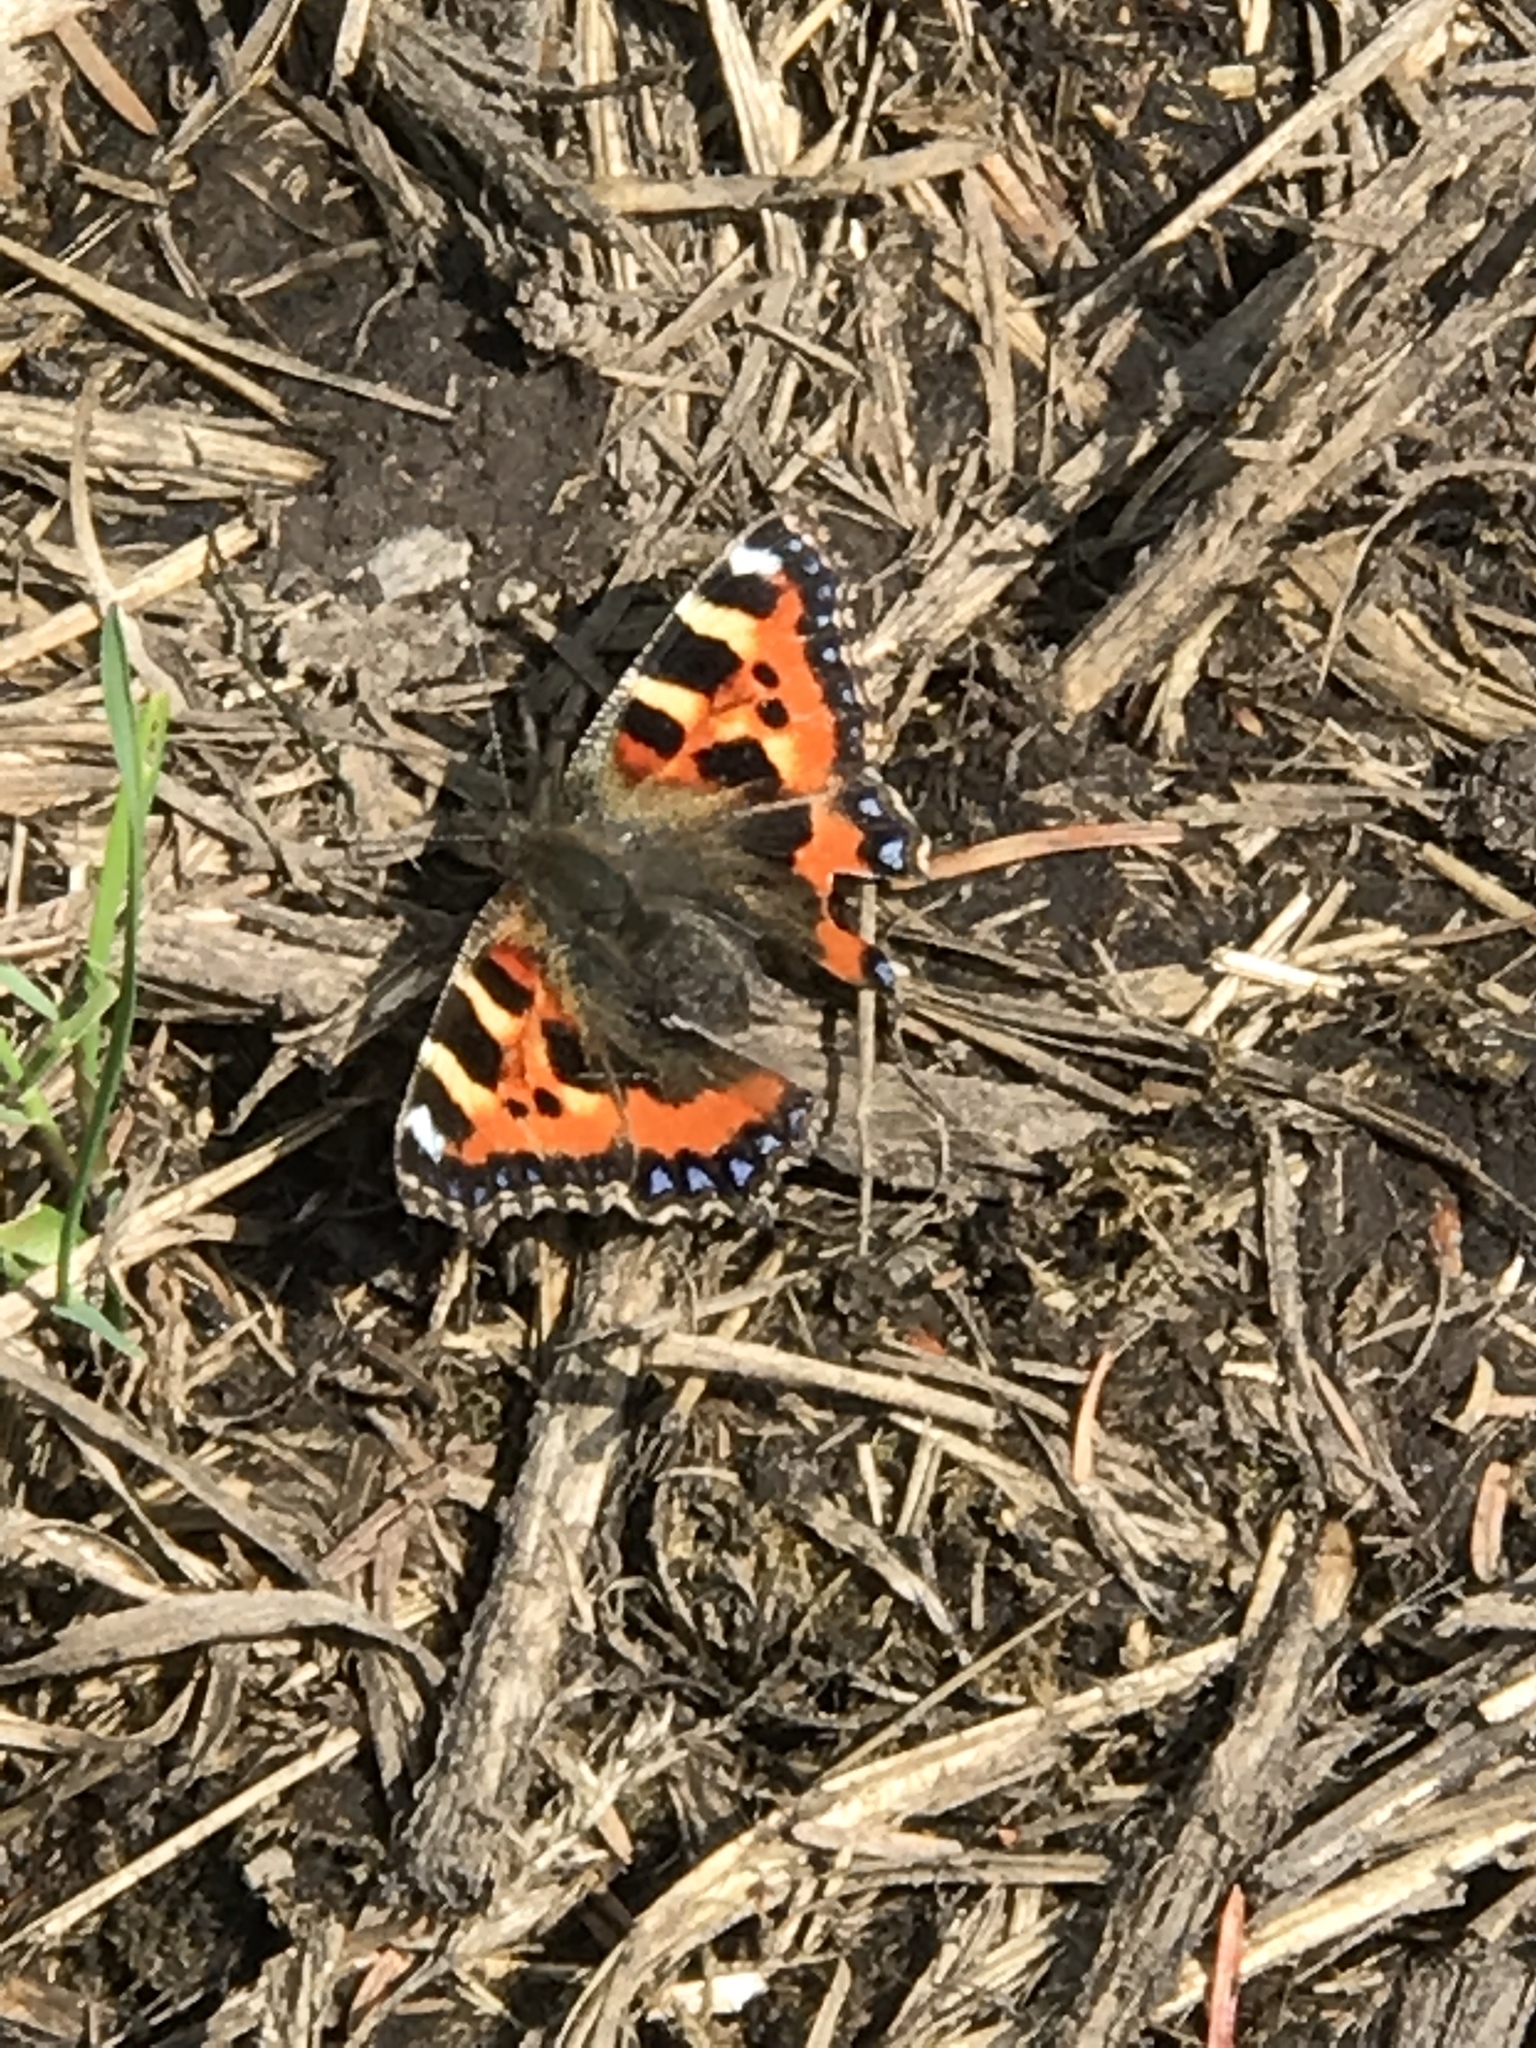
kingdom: Animalia
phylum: Arthropoda
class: Insecta
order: Lepidoptera
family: Nymphalidae
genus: Aglais
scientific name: Aglais urticae
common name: Small tortoiseshell
